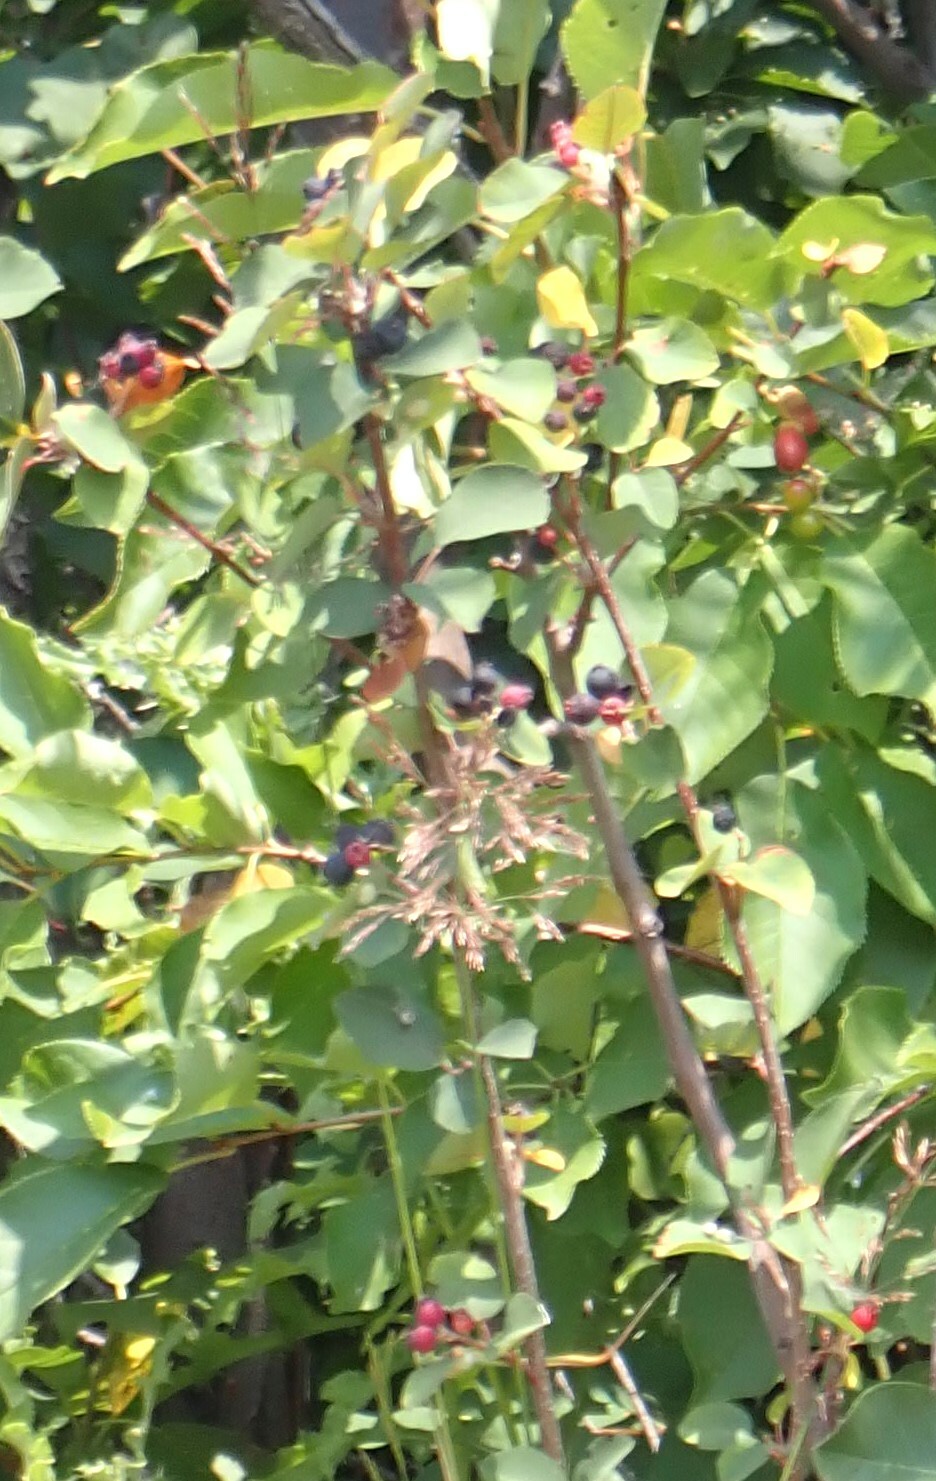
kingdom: Plantae
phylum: Tracheophyta
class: Magnoliopsida
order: Rosales
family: Rosaceae
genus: Amelanchier
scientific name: Amelanchier alnifolia
